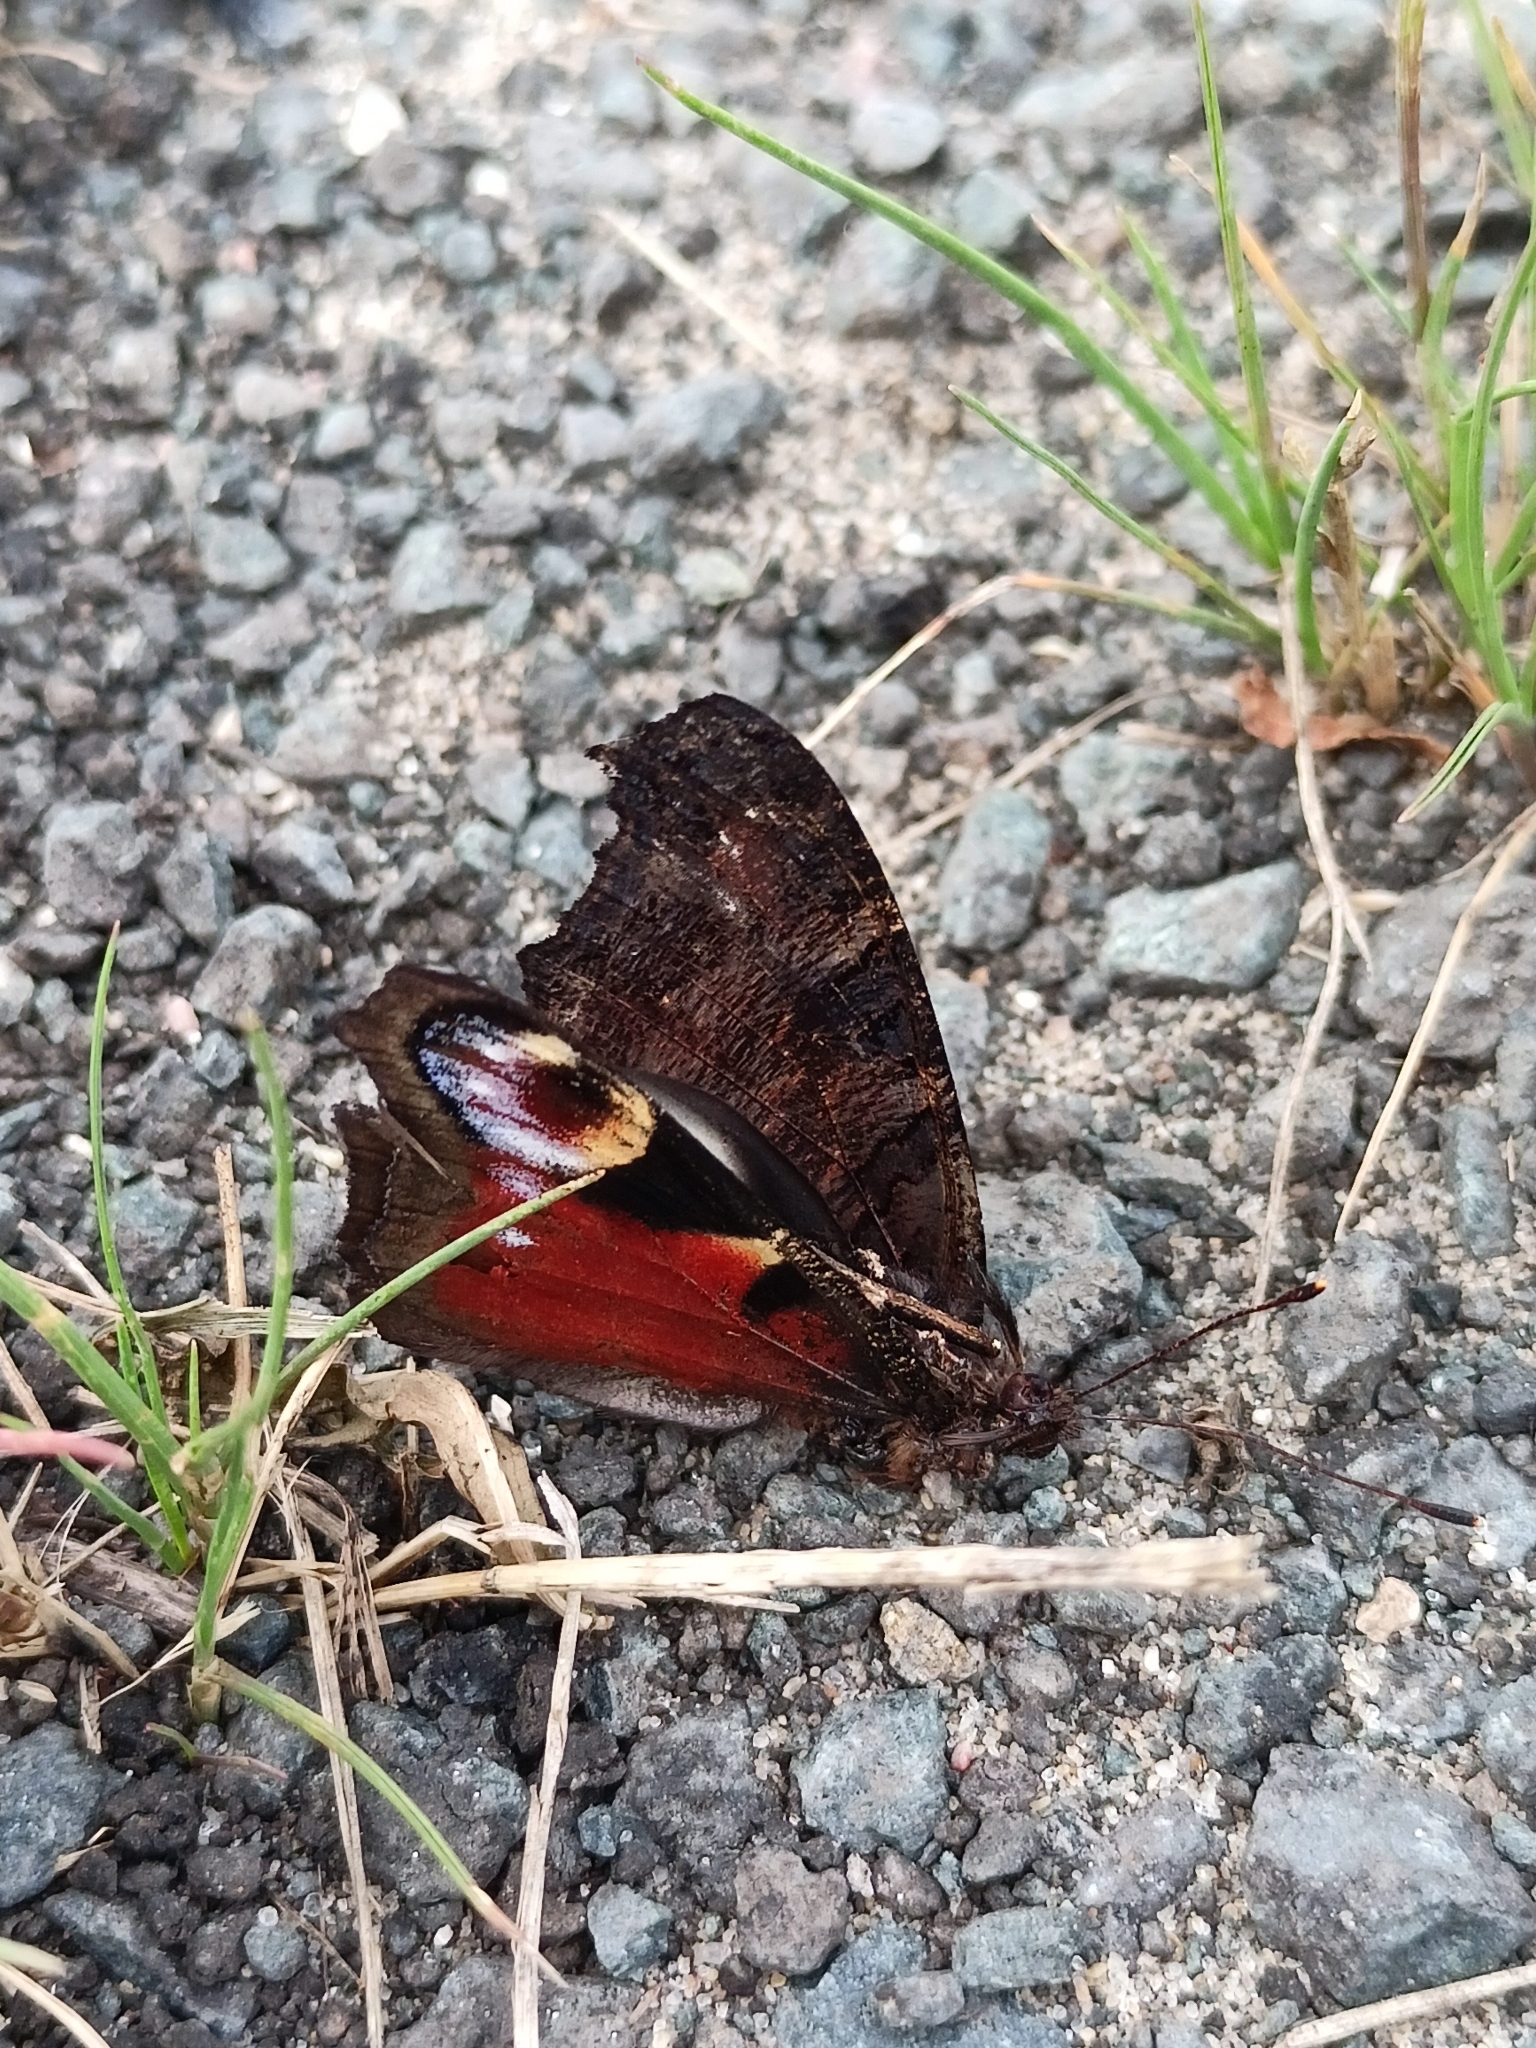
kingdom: Animalia
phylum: Arthropoda
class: Insecta
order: Lepidoptera
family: Nymphalidae
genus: Aglais
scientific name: Aglais io
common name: Peacock
